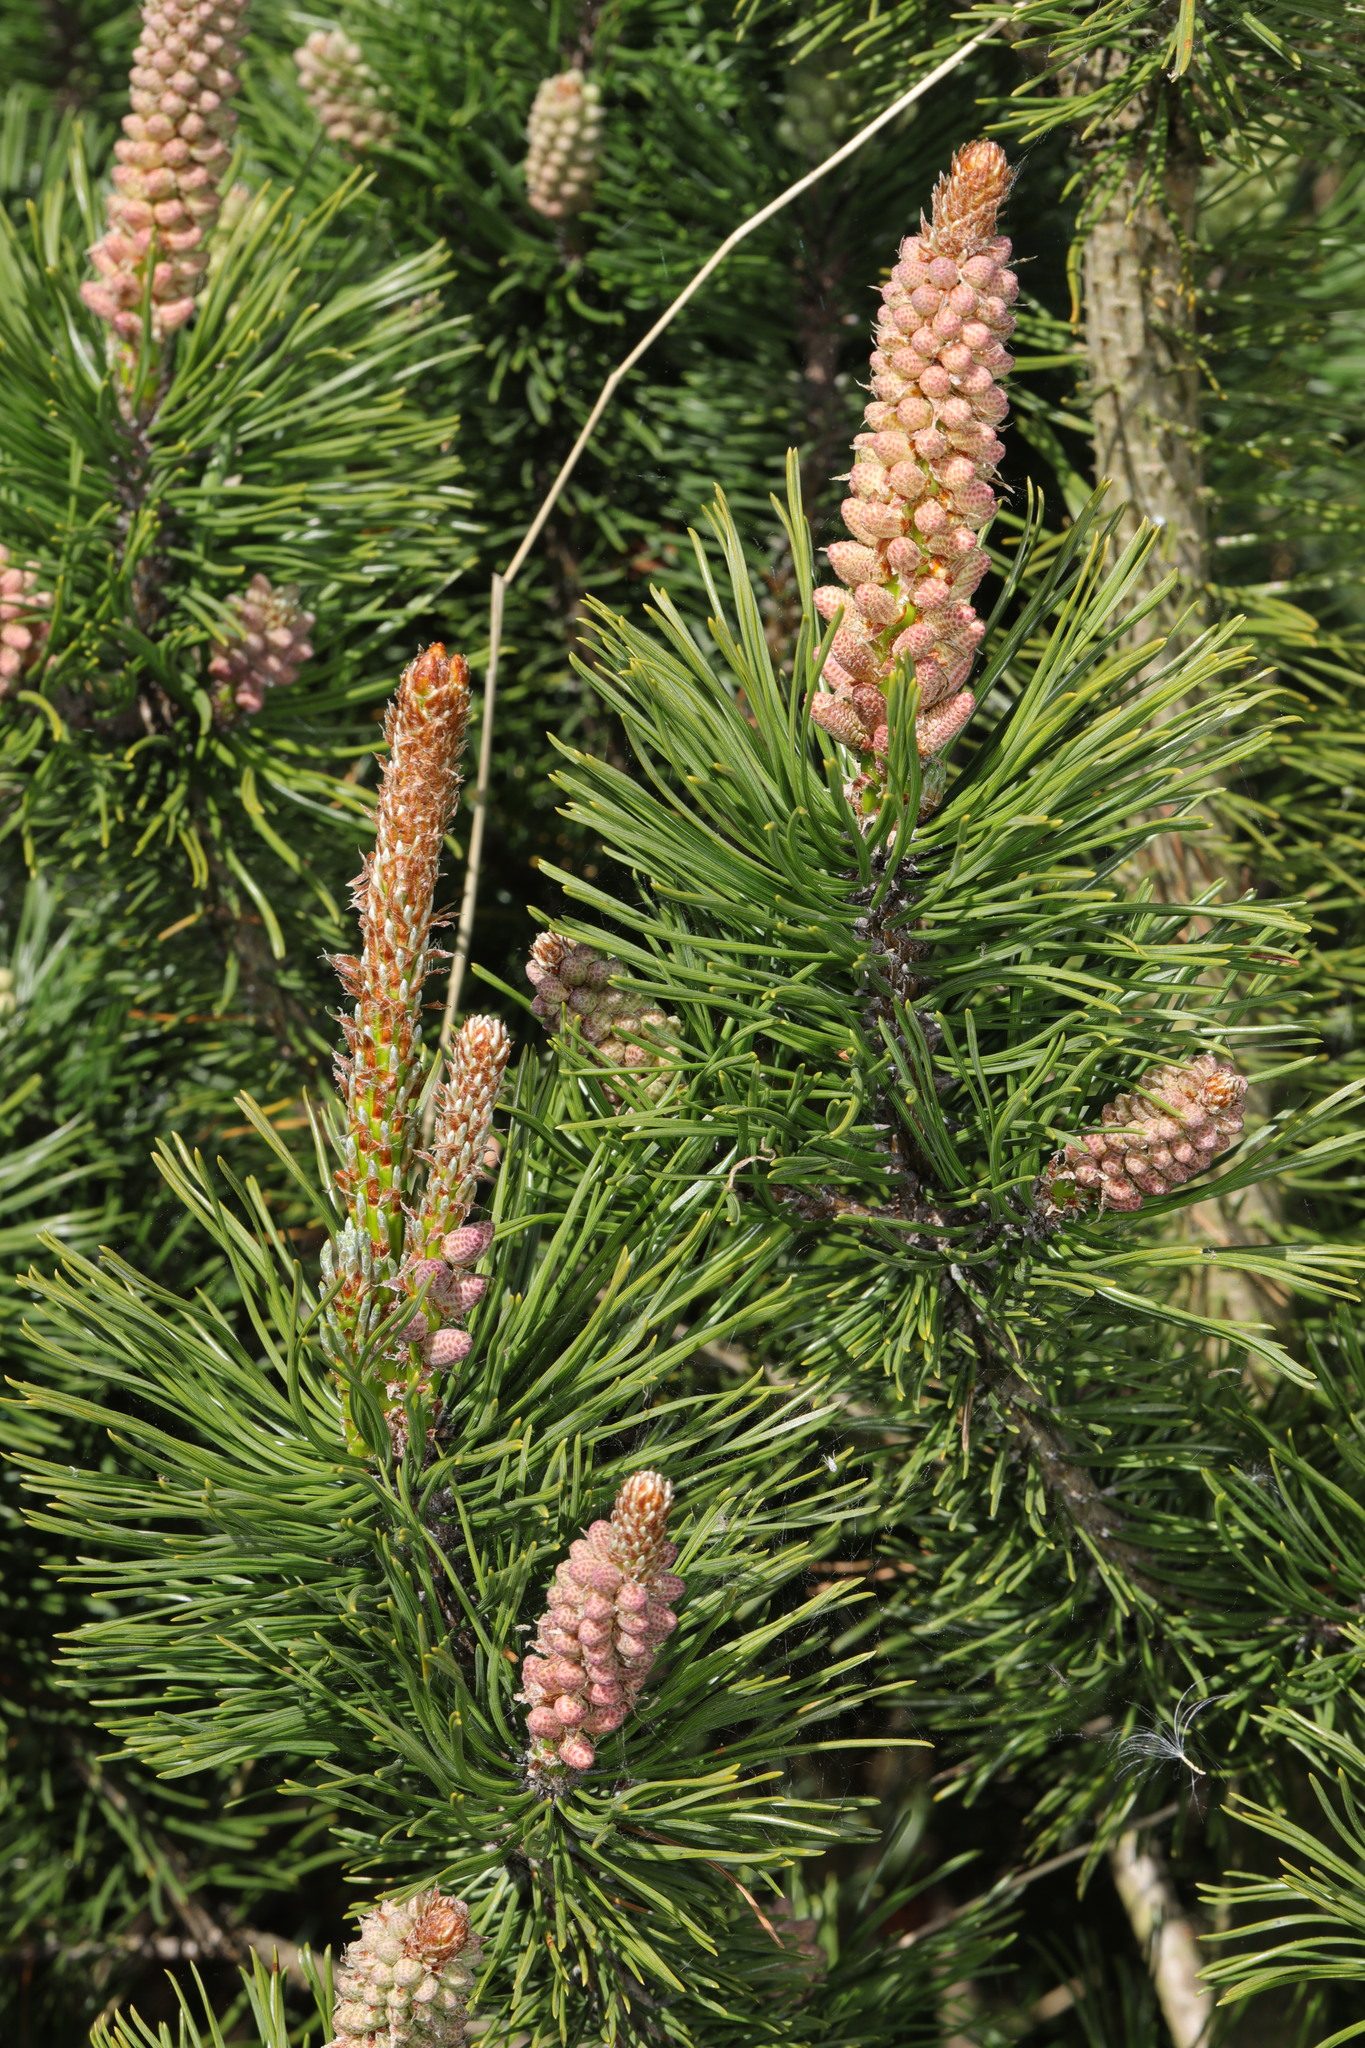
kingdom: Plantae
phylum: Tracheophyta
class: Pinopsida
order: Pinales
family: Pinaceae
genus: Pinus
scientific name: Pinus sylvestris
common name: Scots pine
